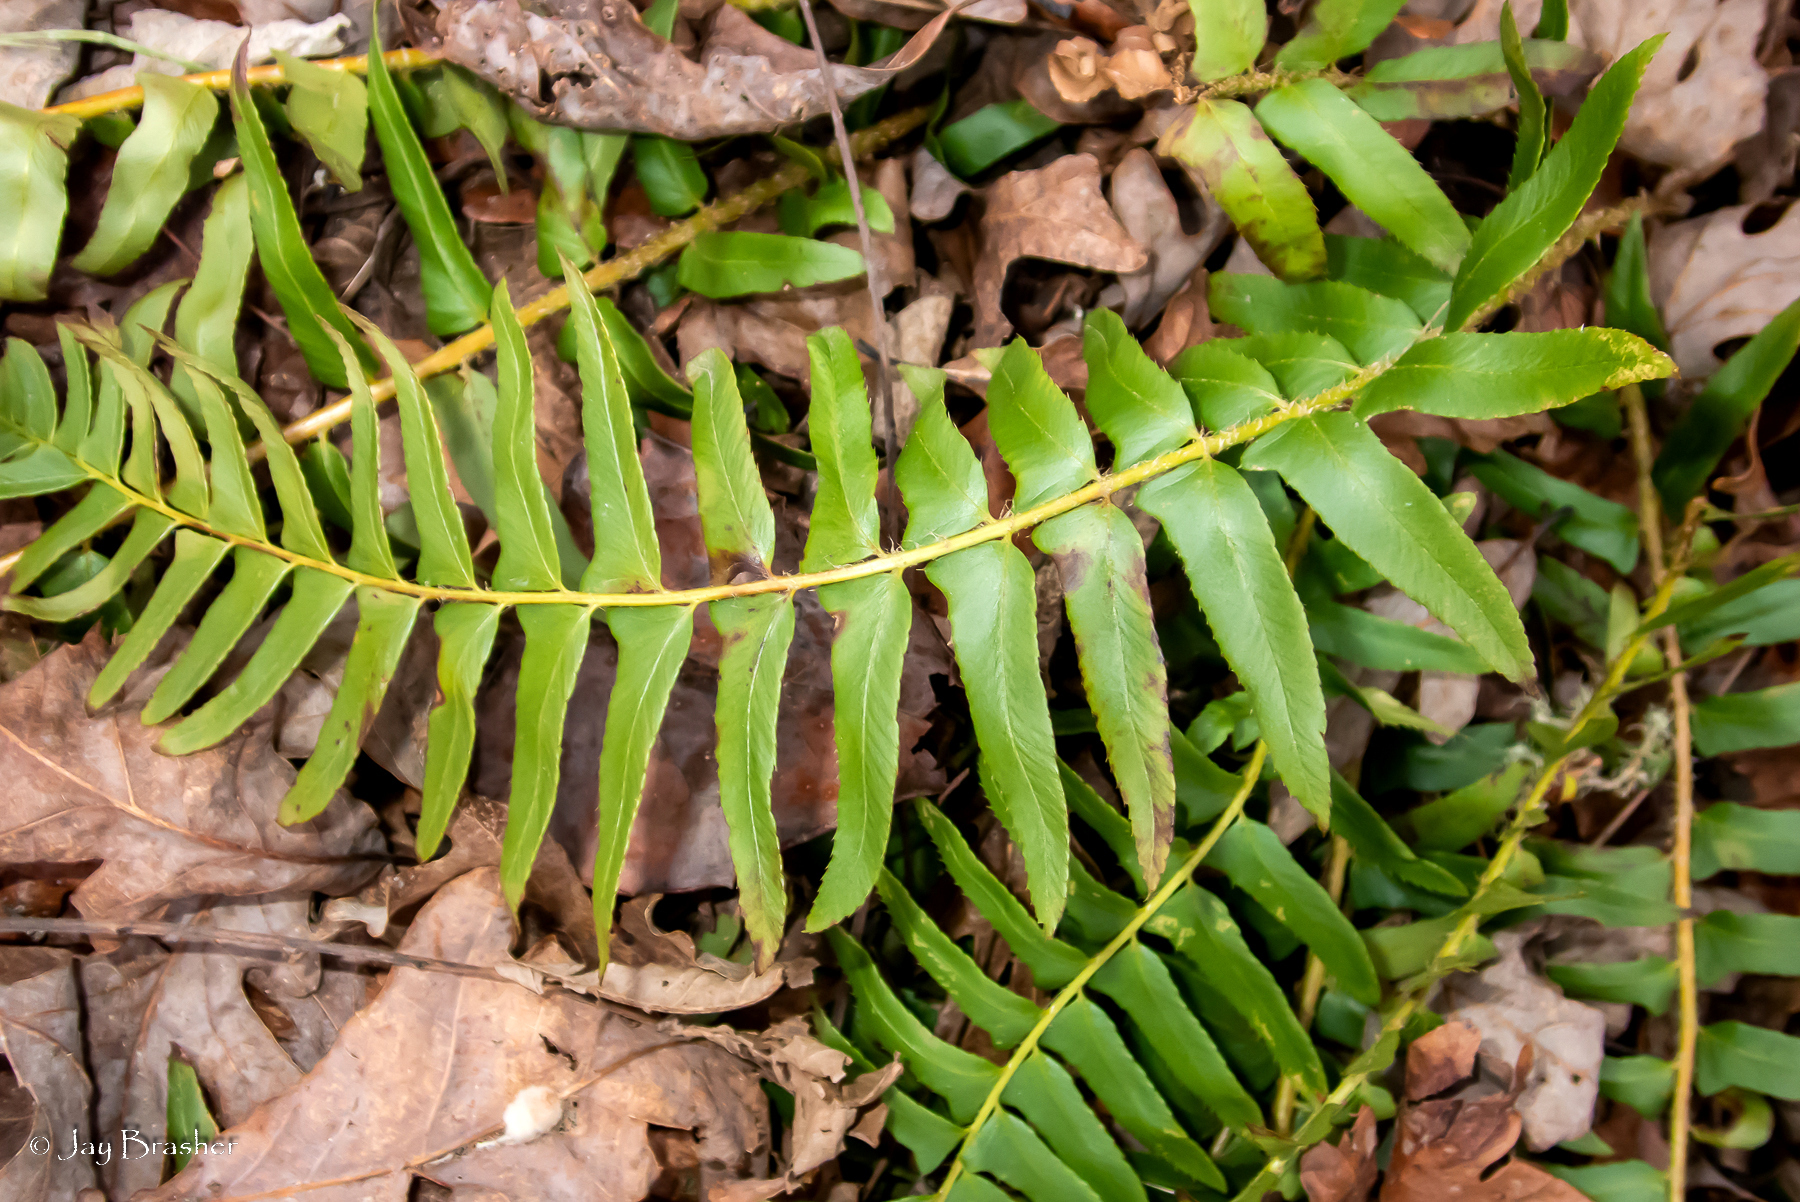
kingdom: Plantae
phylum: Tracheophyta
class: Polypodiopsida
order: Polypodiales
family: Dryopteridaceae
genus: Polystichum
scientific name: Polystichum acrostichoides
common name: Christmas fern
